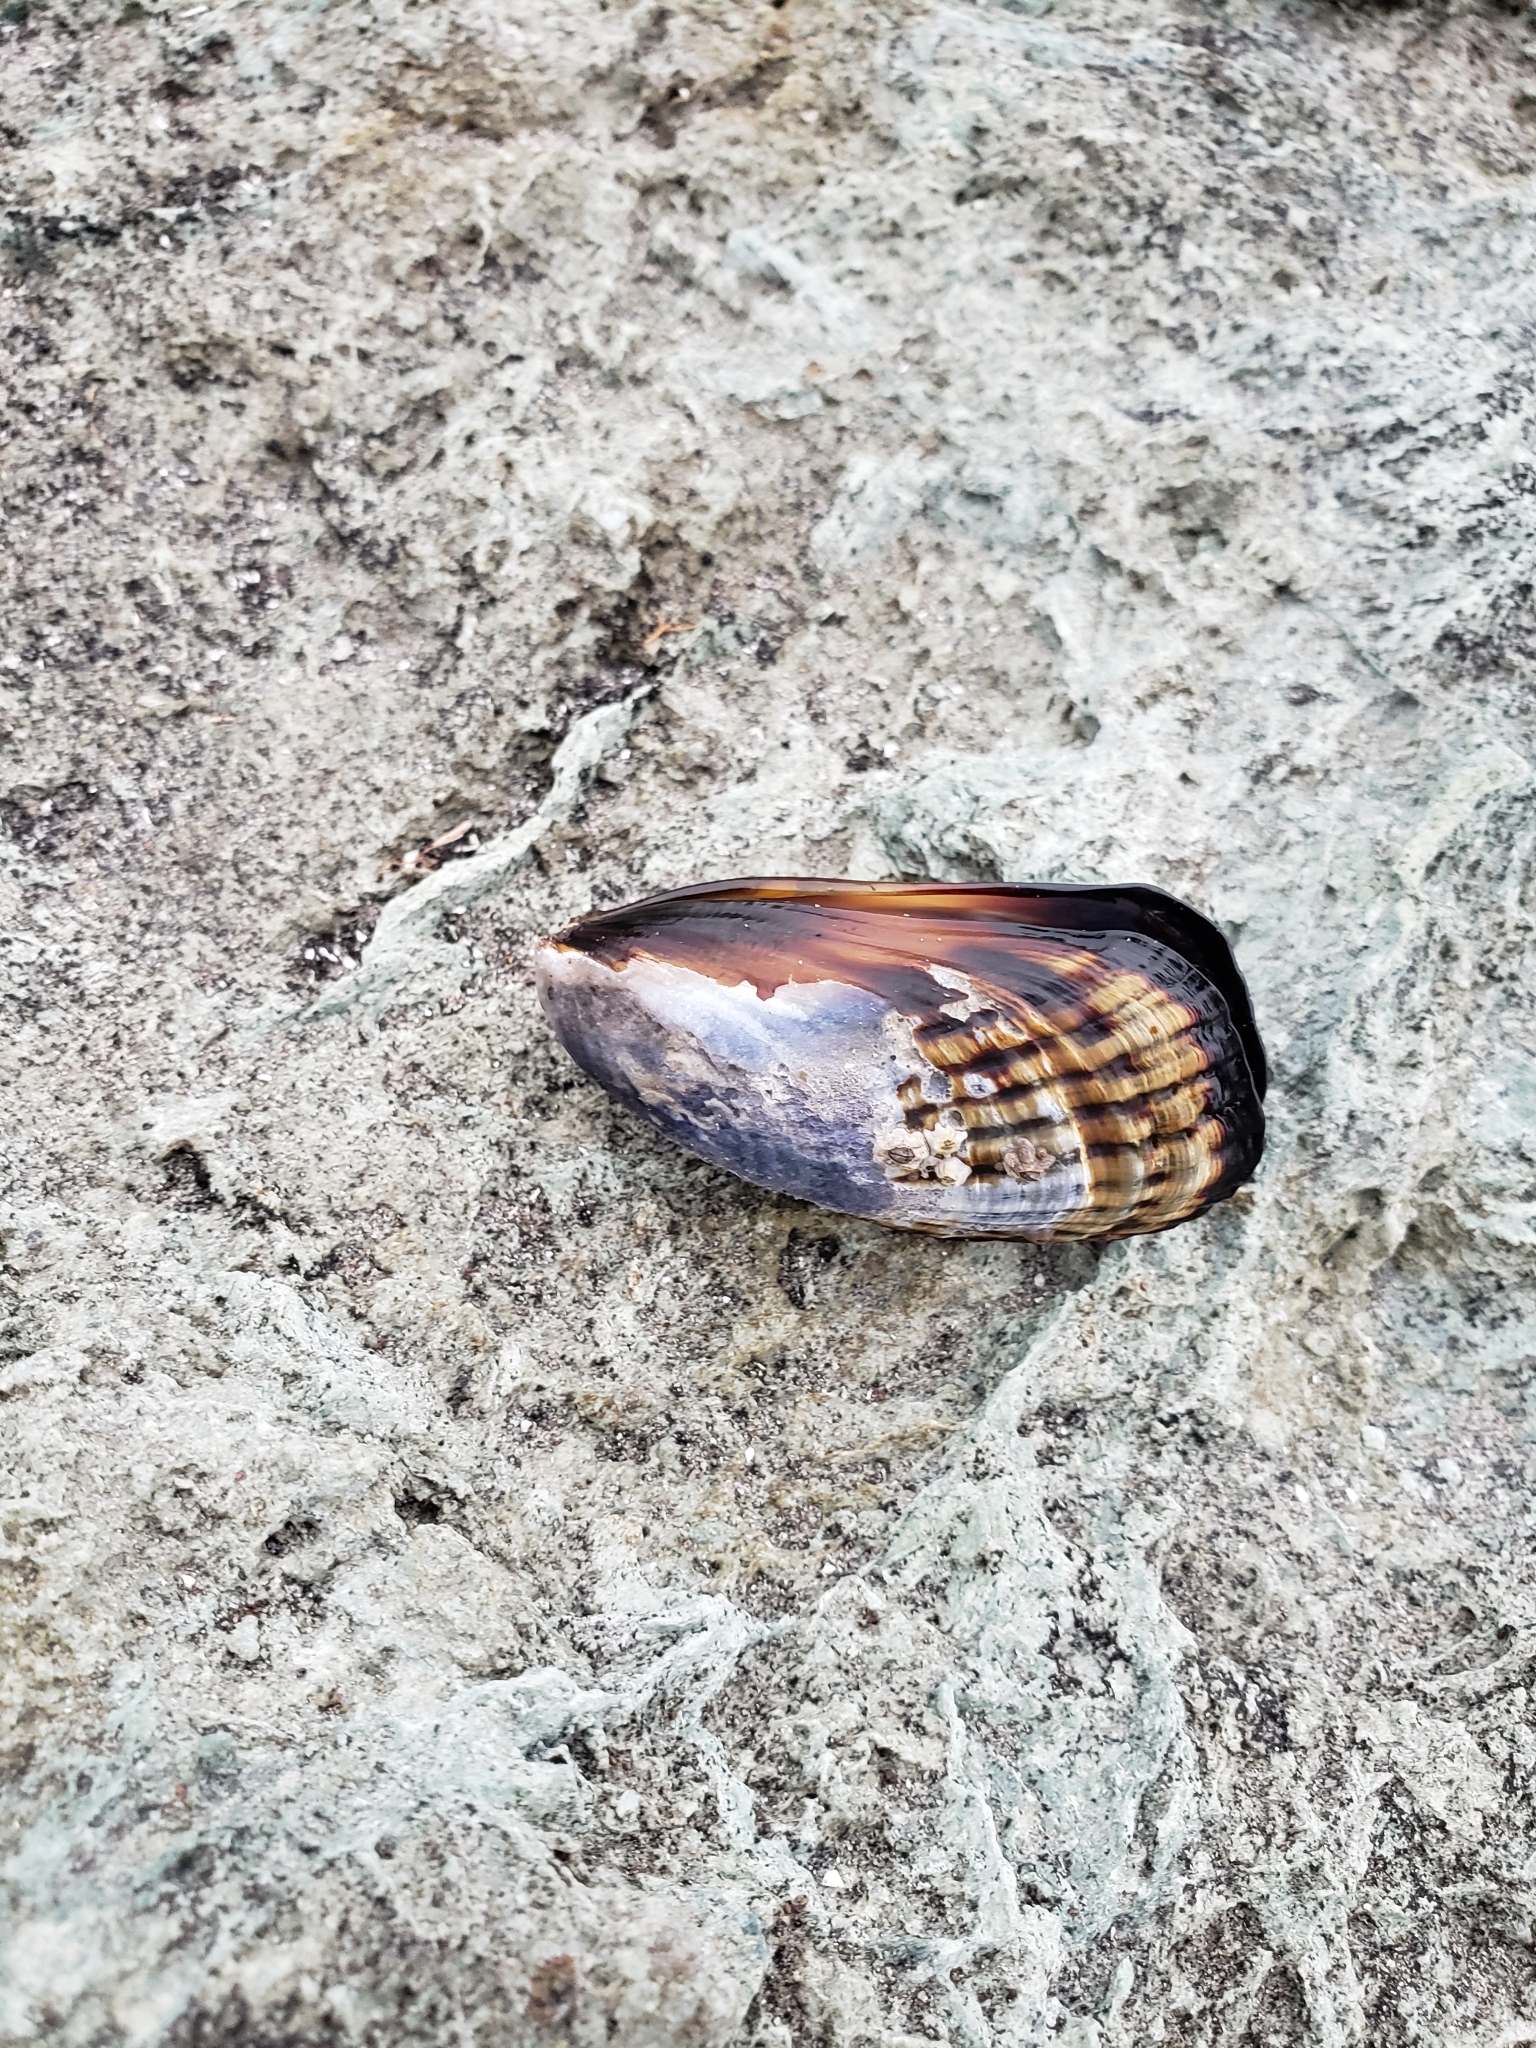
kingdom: Animalia
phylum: Mollusca
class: Bivalvia
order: Mytilida
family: Mytilidae
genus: Mytilus
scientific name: Mytilus californianus
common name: California mussel
